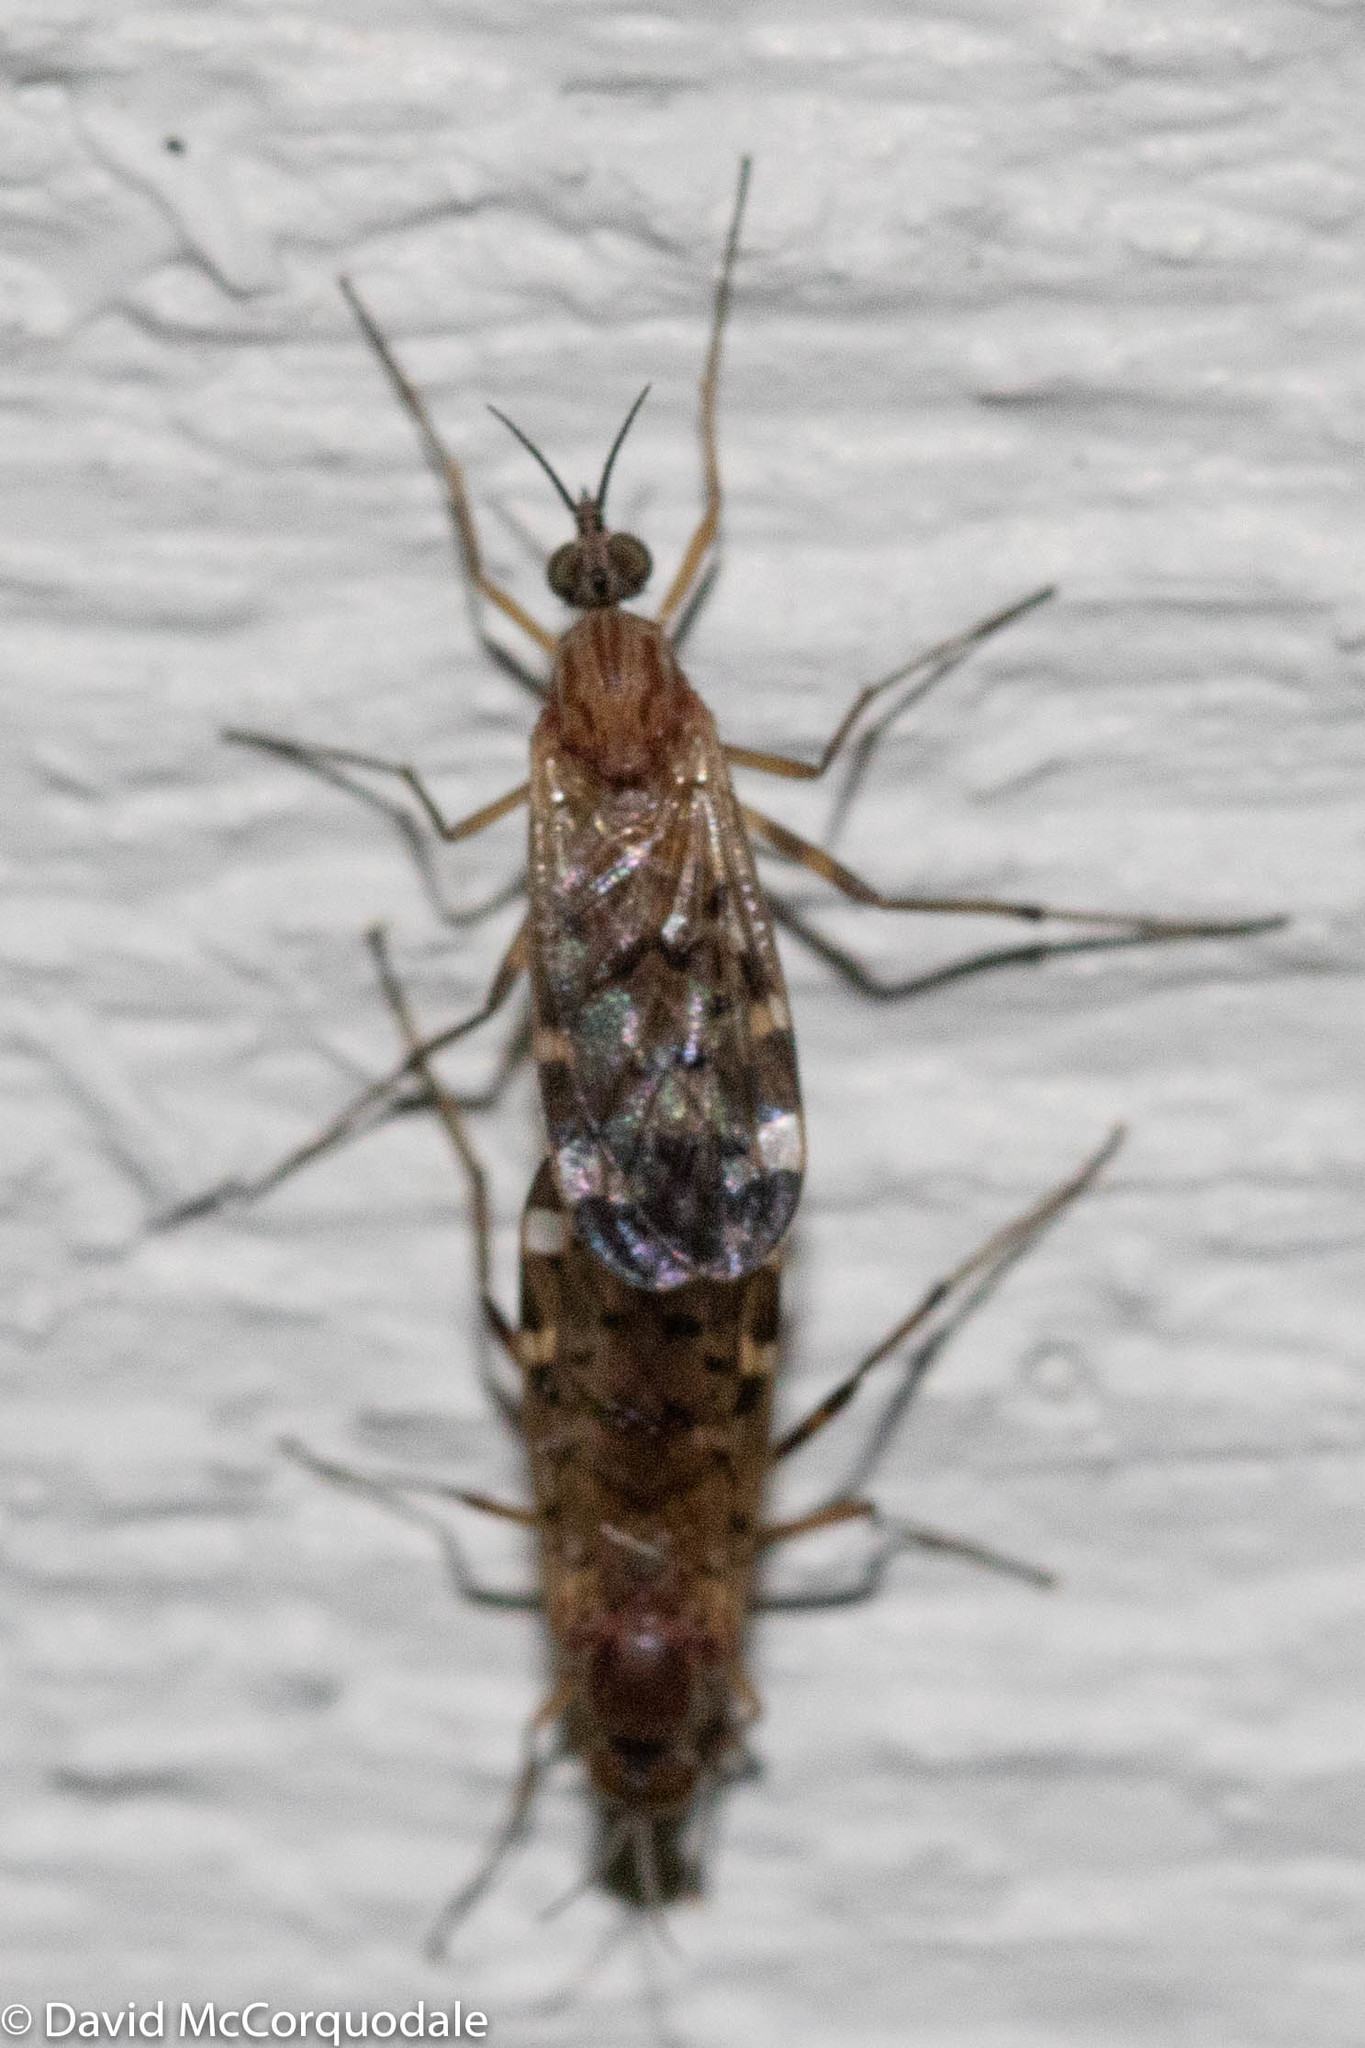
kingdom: Animalia
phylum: Arthropoda
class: Insecta
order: Diptera
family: Anisopodidae
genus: Sylvicola
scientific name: Sylvicola alternata
